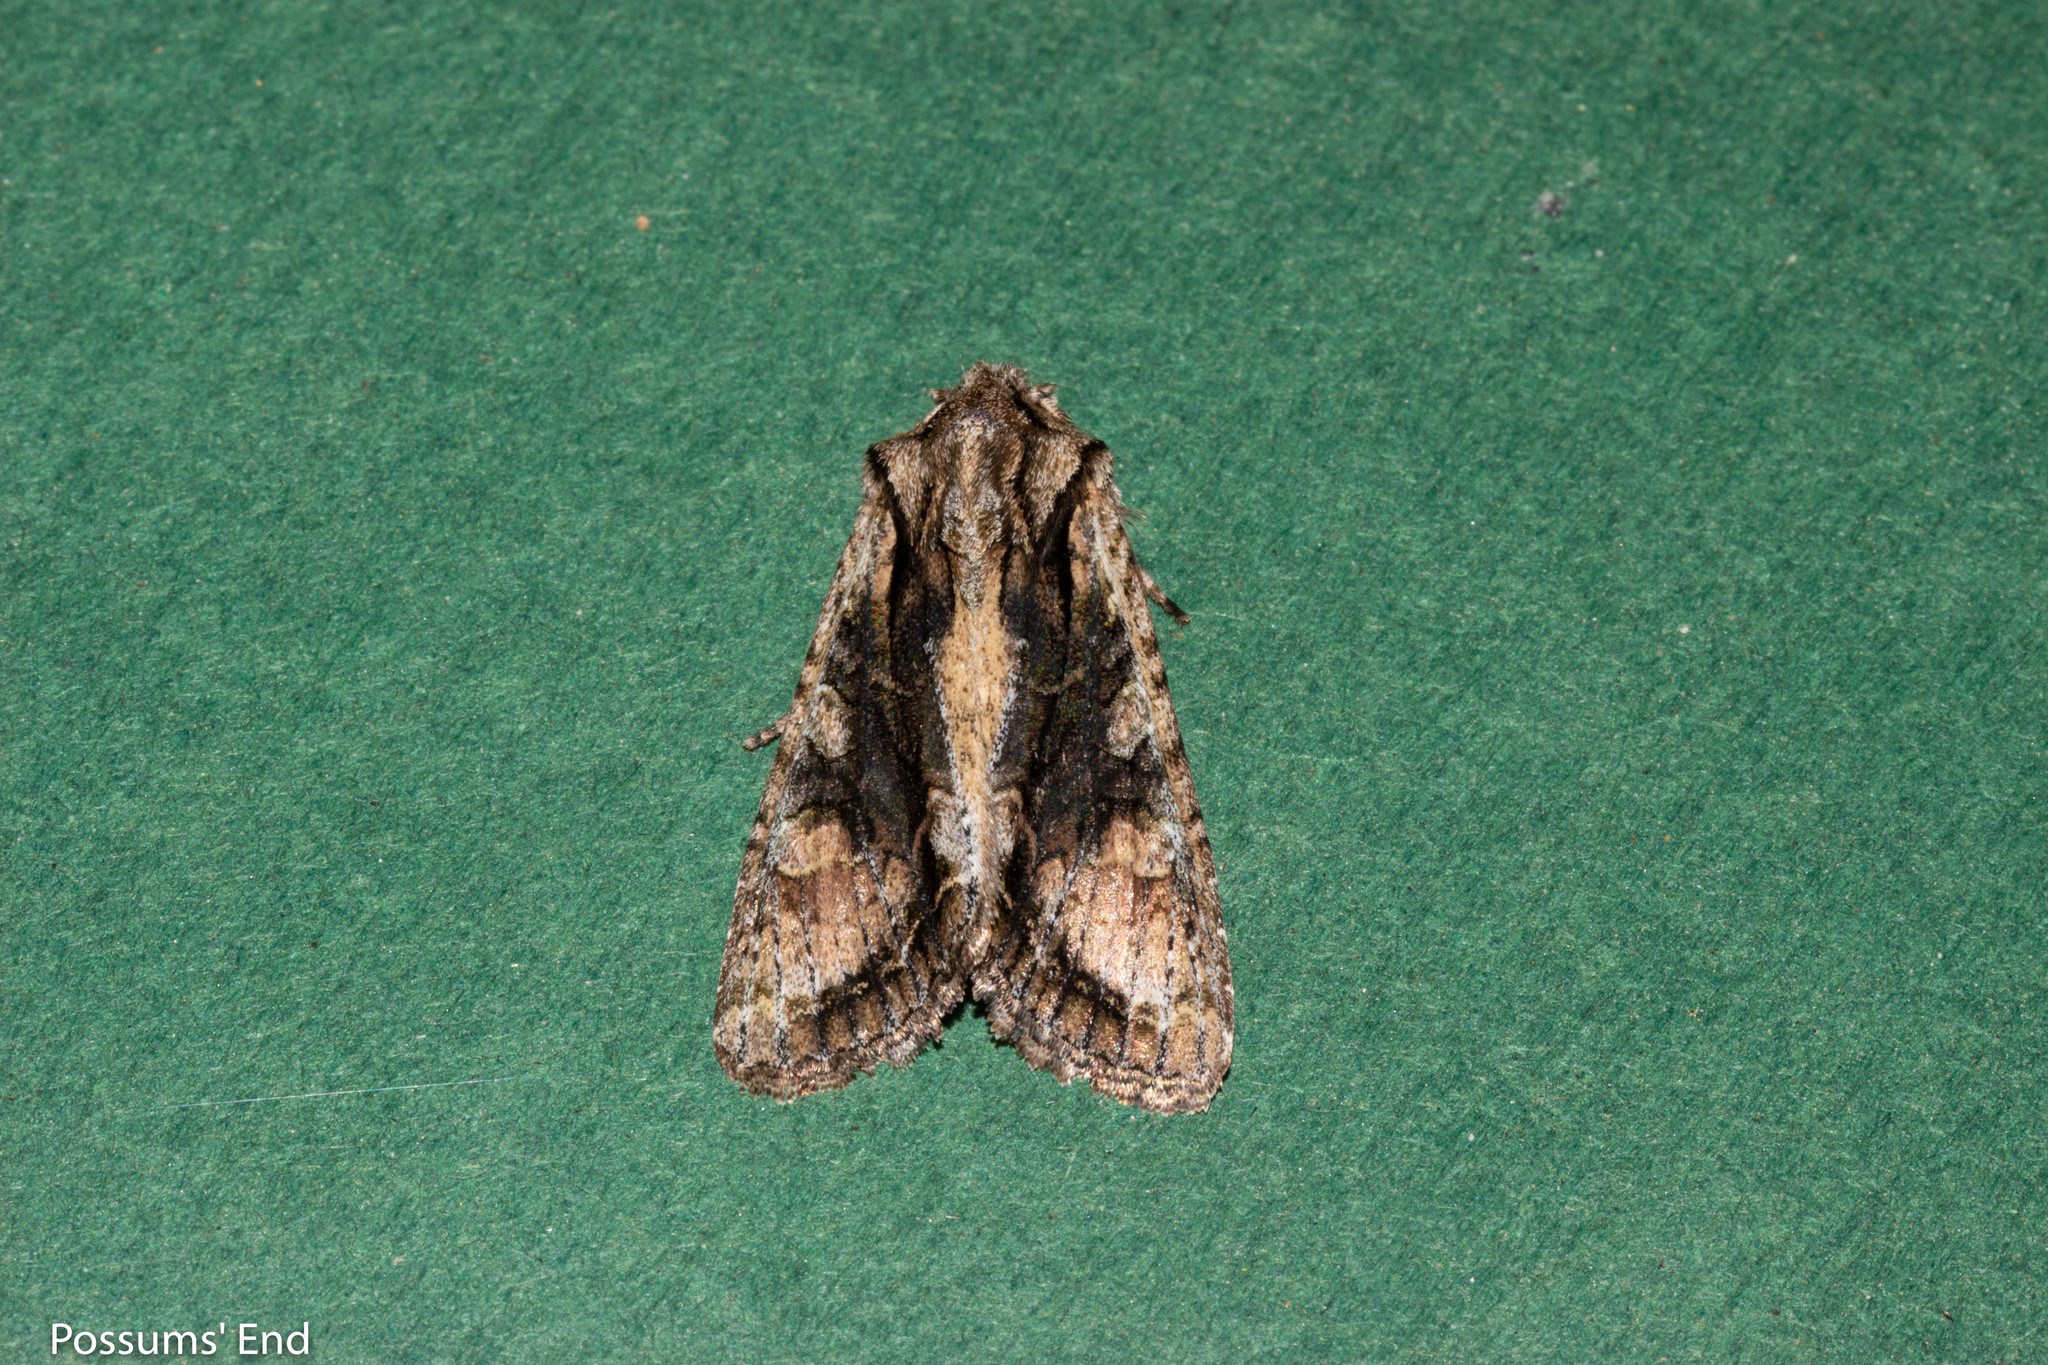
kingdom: Animalia
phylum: Arthropoda
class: Insecta
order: Lepidoptera
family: Noctuidae
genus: Ichneutica
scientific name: Ichneutica mutans
